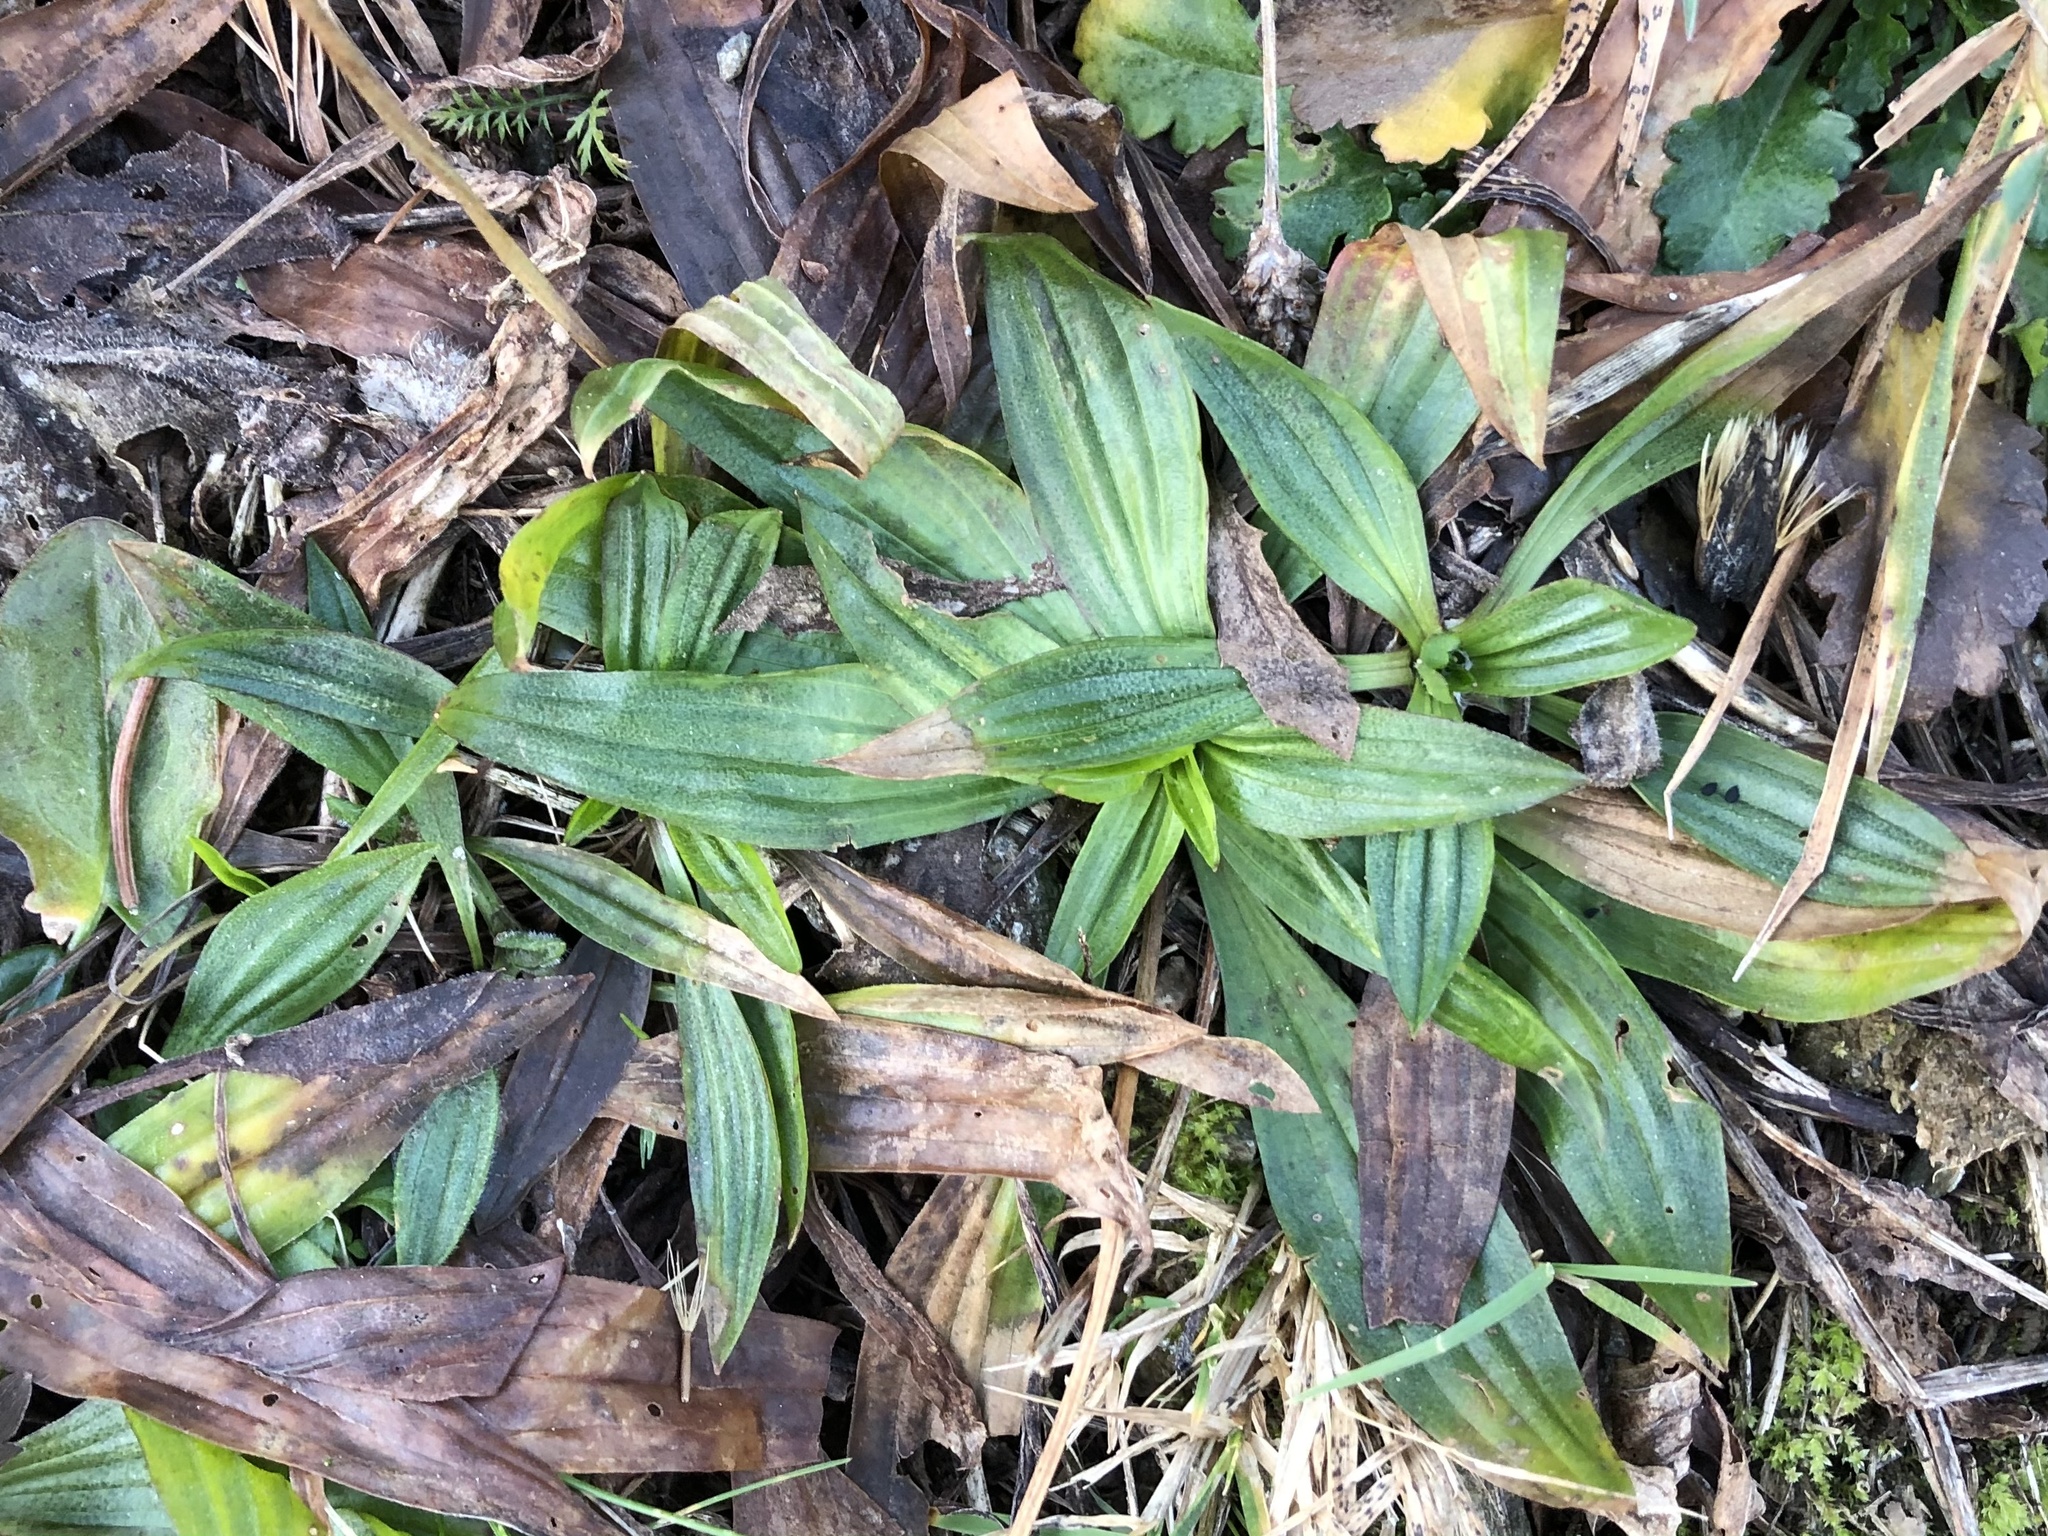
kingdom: Plantae
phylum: Tracheophyta
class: Magnoliopsida
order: Lamiales
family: Plantaginaceae
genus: Plantago
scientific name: Plantago lanceolata
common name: Ribwort plantain
